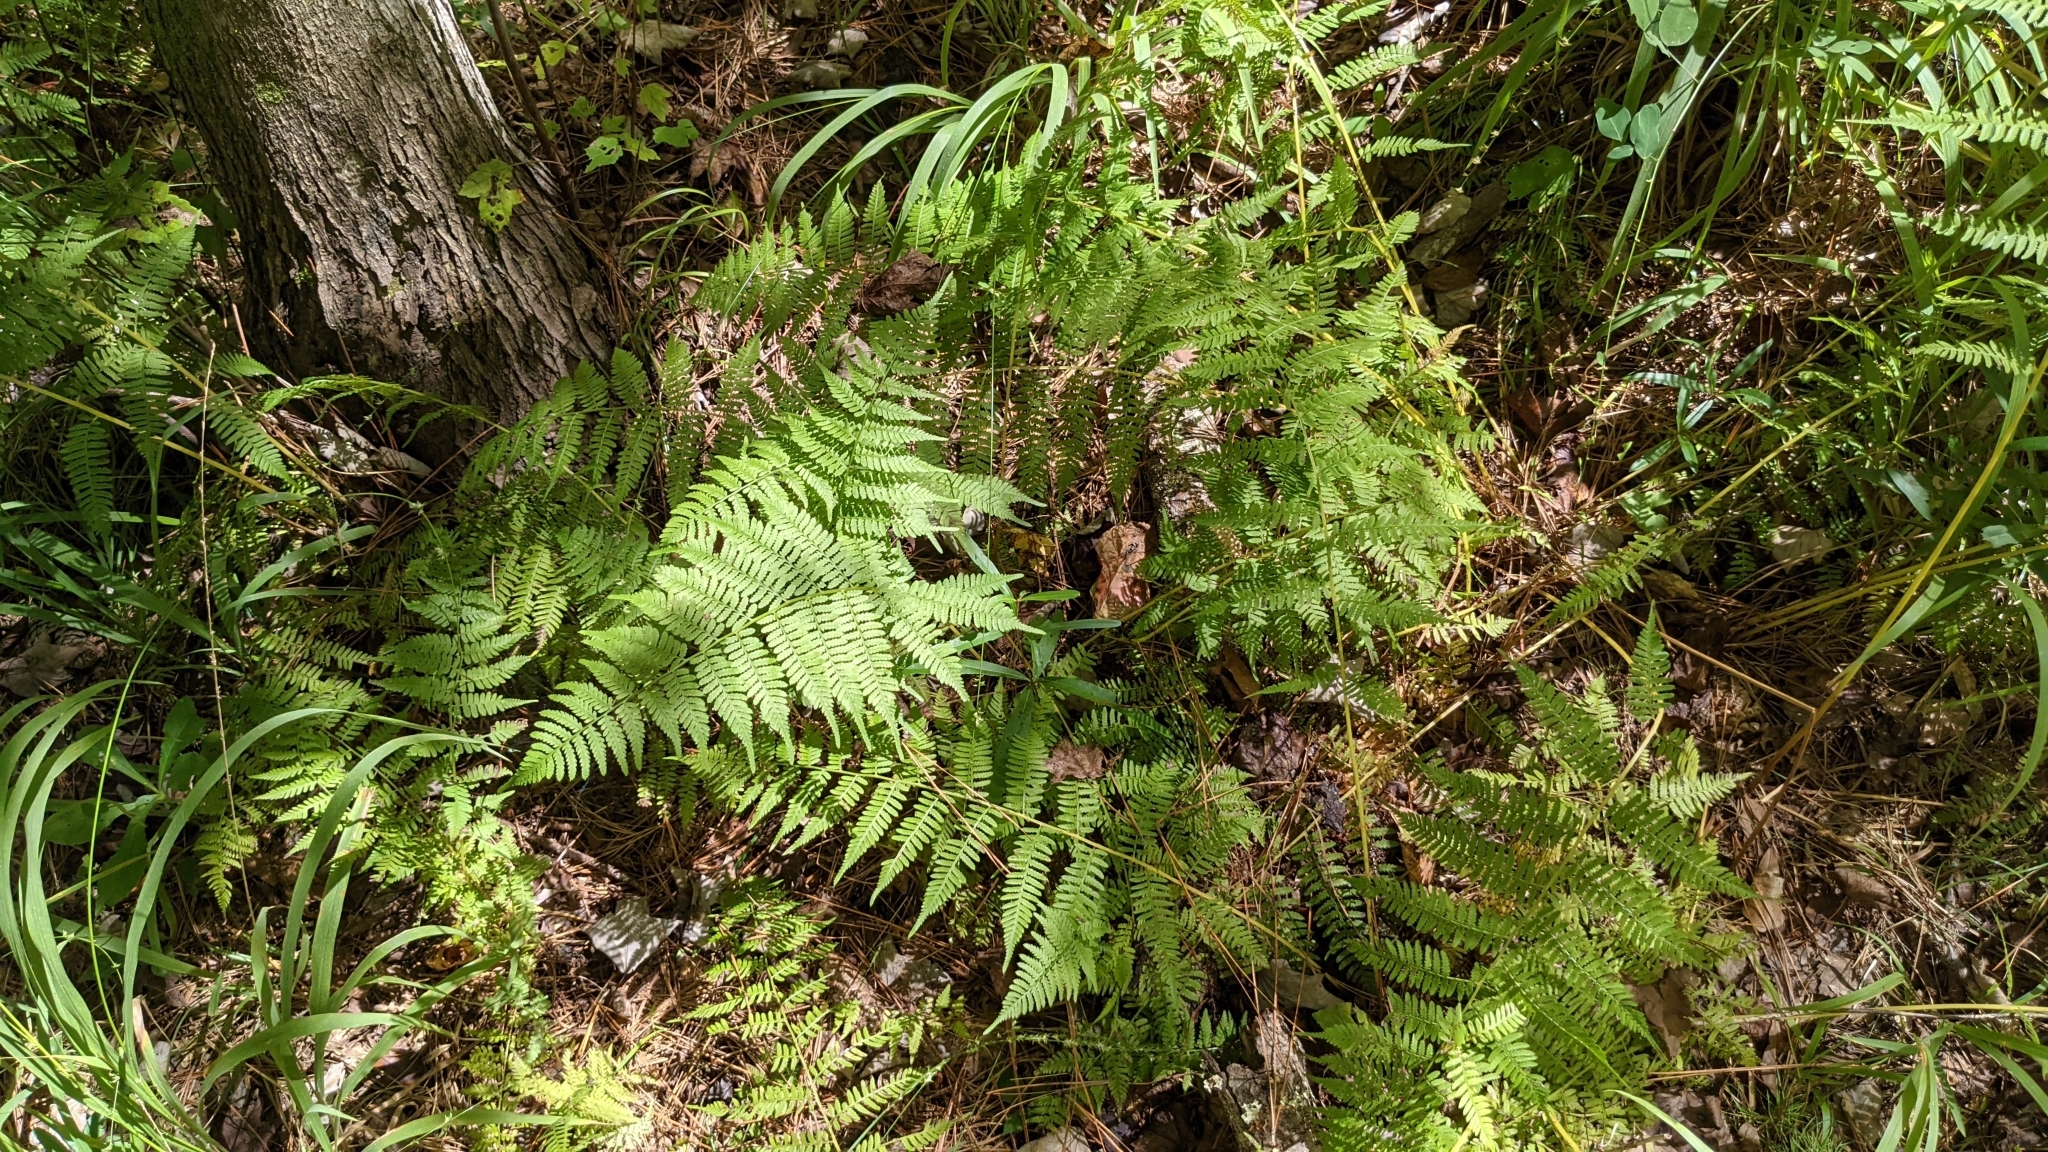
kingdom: Plantae
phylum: Tracheophyta
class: Polypodiopsida
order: Polypodiales
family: Athyriaceae
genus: Athyrium
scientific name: Athyrium asplenioides
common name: Southern lady fern
